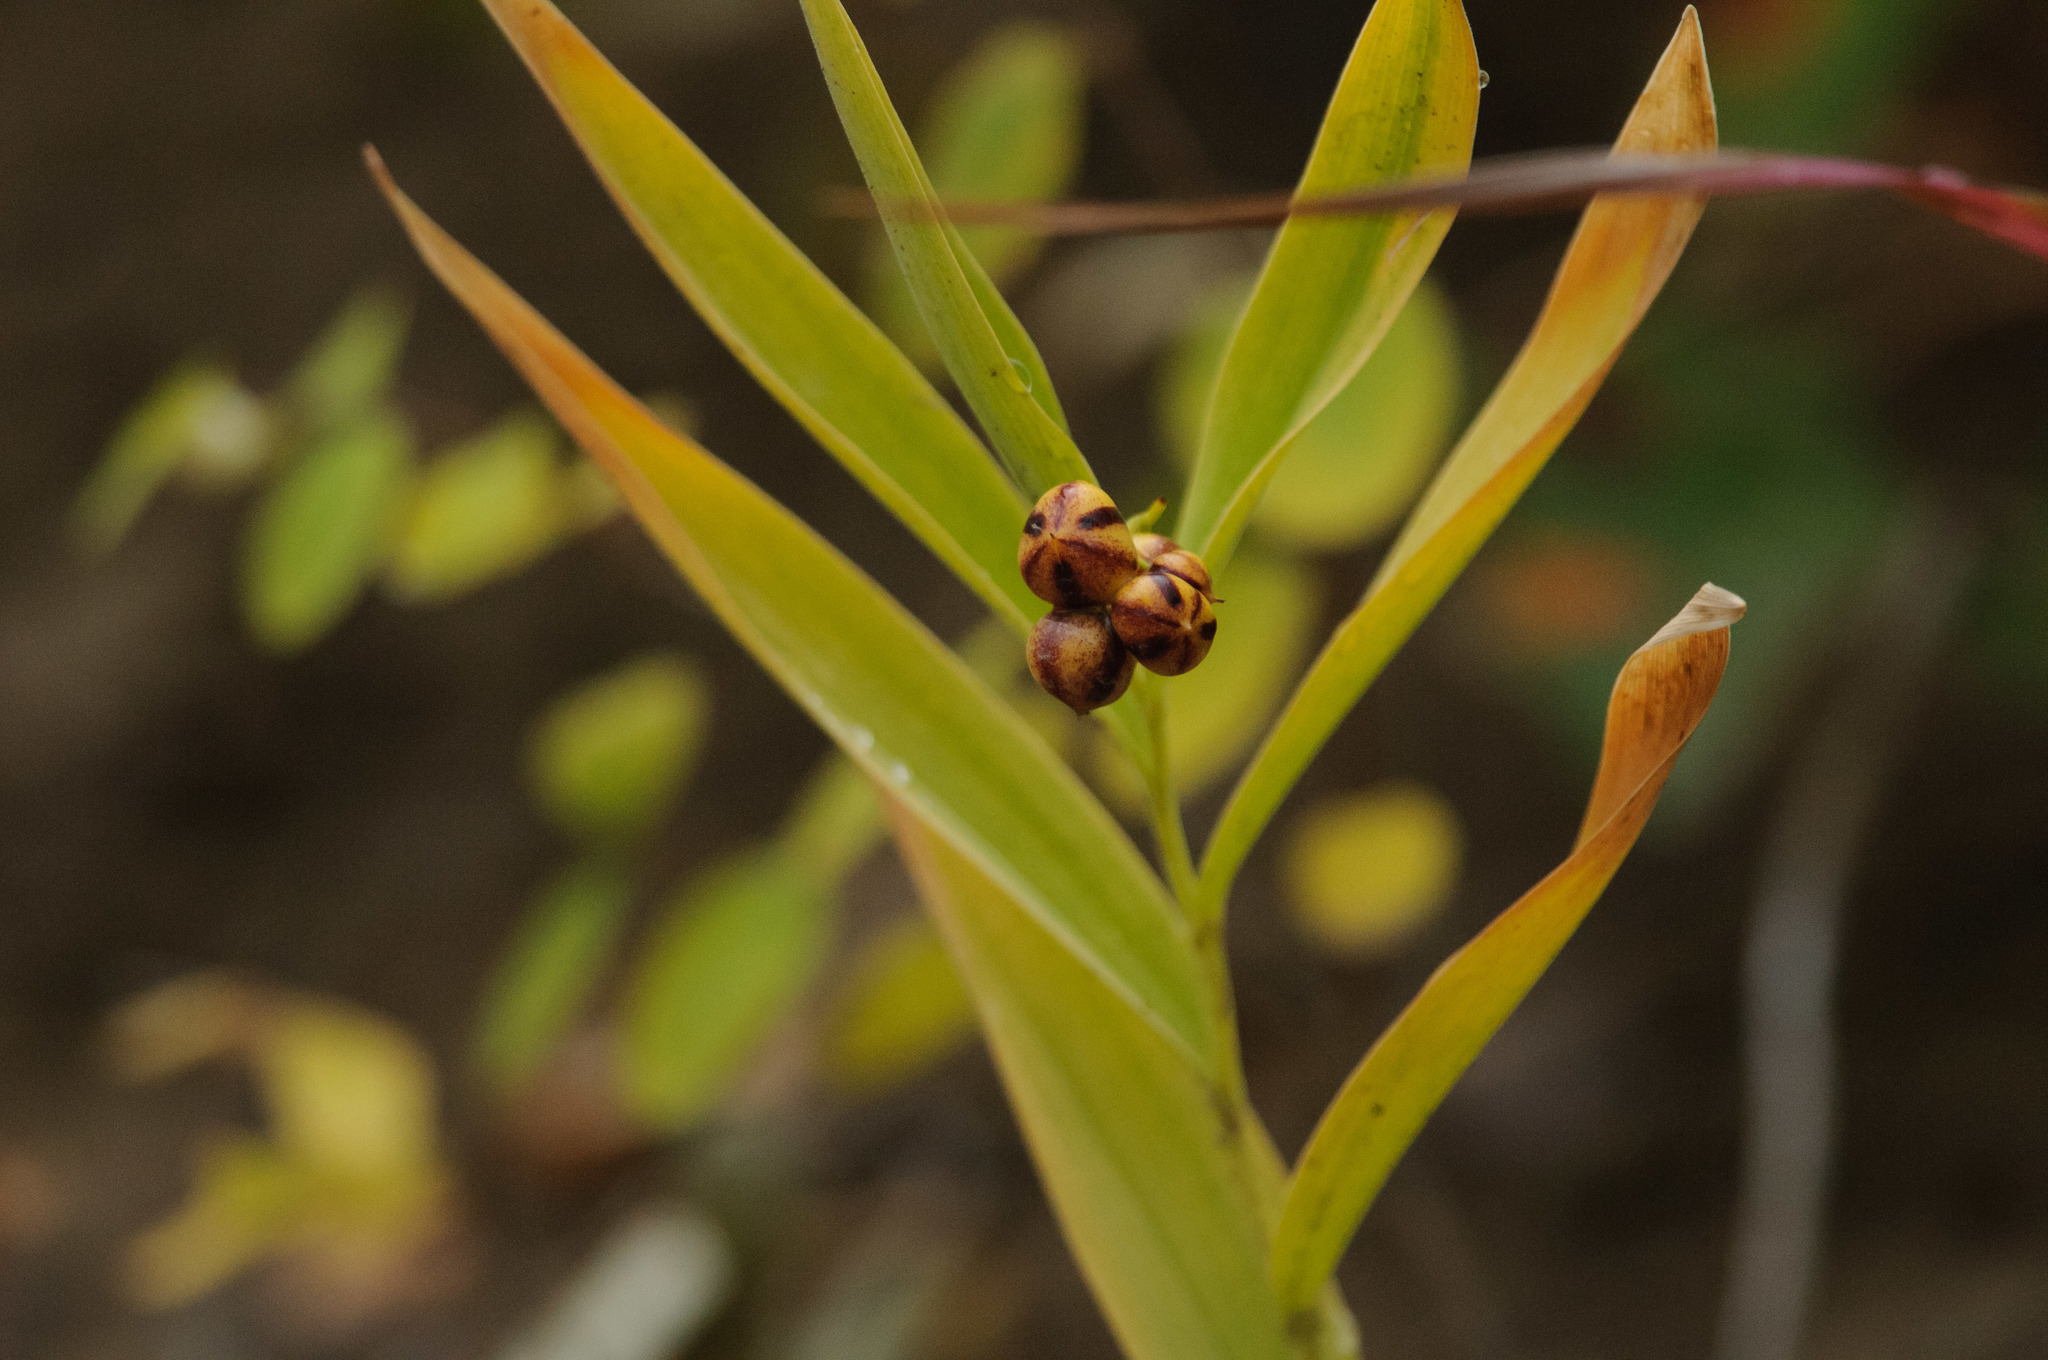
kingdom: Plantae
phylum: Tracheophyta
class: Liliopsida
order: Asparagales
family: Asparagaceae
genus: Maianthemum
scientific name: Maianthemum stellatum
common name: Little false solomon's seal
